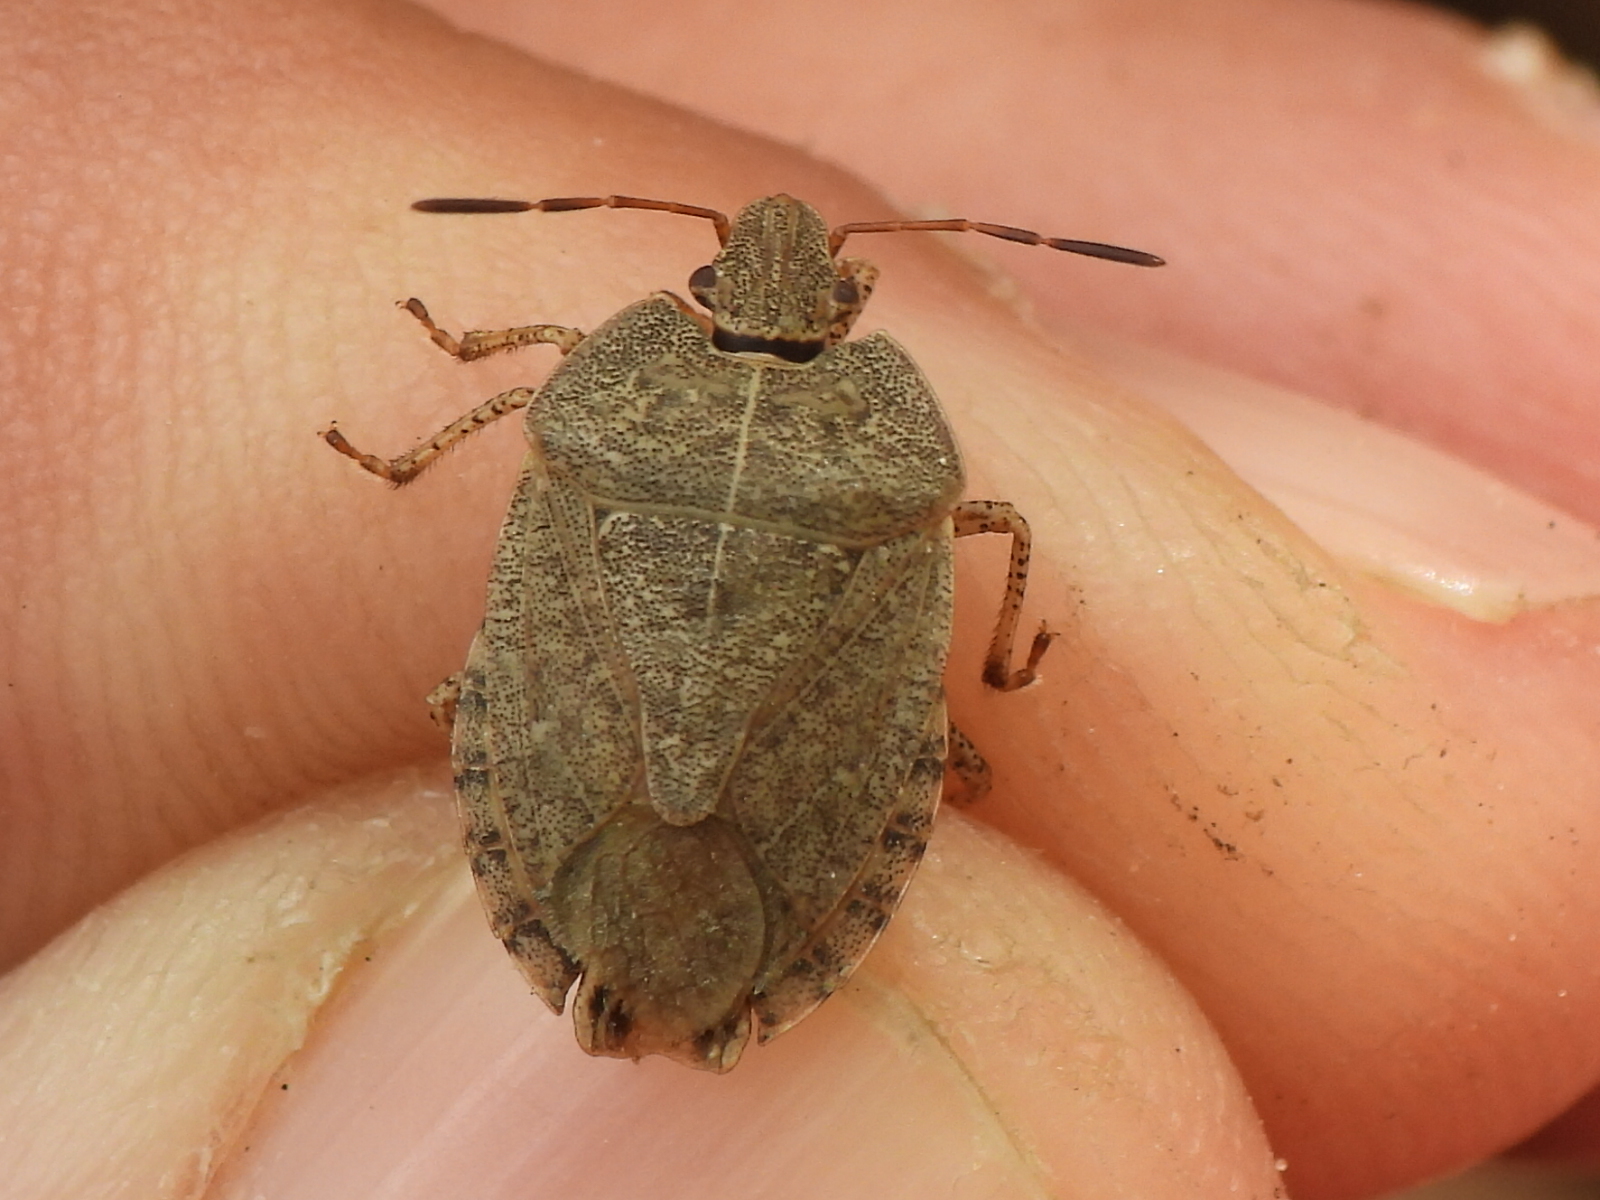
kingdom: Animalia
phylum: Arthropoda
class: Insecta
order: Hemiptera
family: Pentatomidae
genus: Menecles
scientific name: Menecles insertus
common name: Elf shoe stink bug
